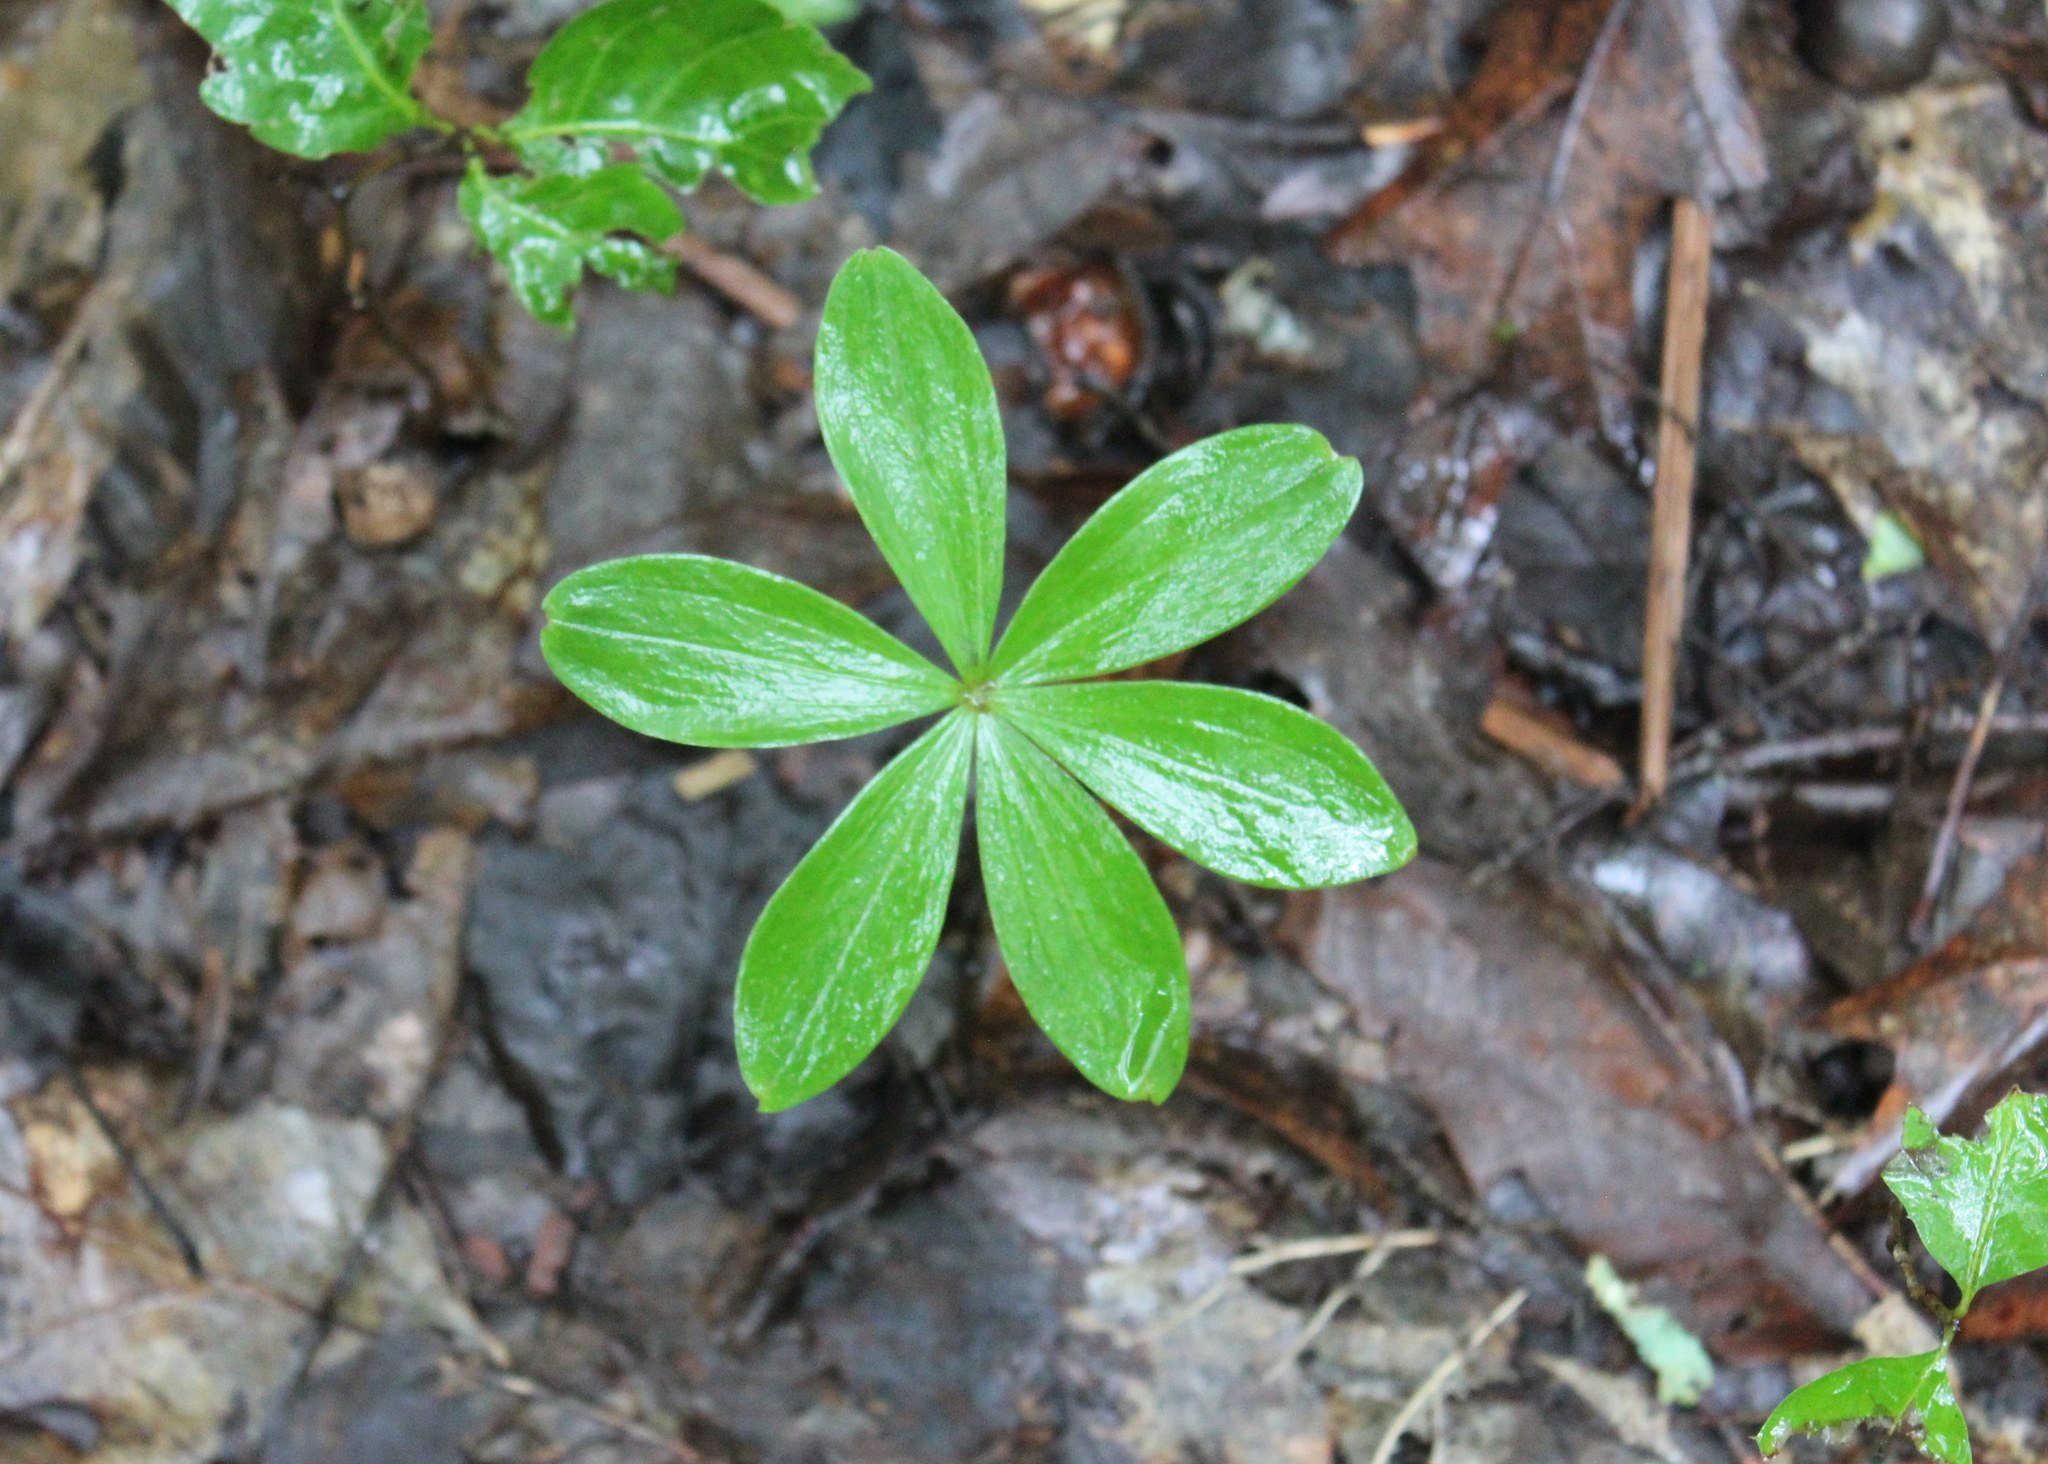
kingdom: Plantae
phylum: Tracheophyta
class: Liliopsida
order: Liliales
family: Liliaceae
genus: Medeola
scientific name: Medeola virginiana
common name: Indian cucumber-root
